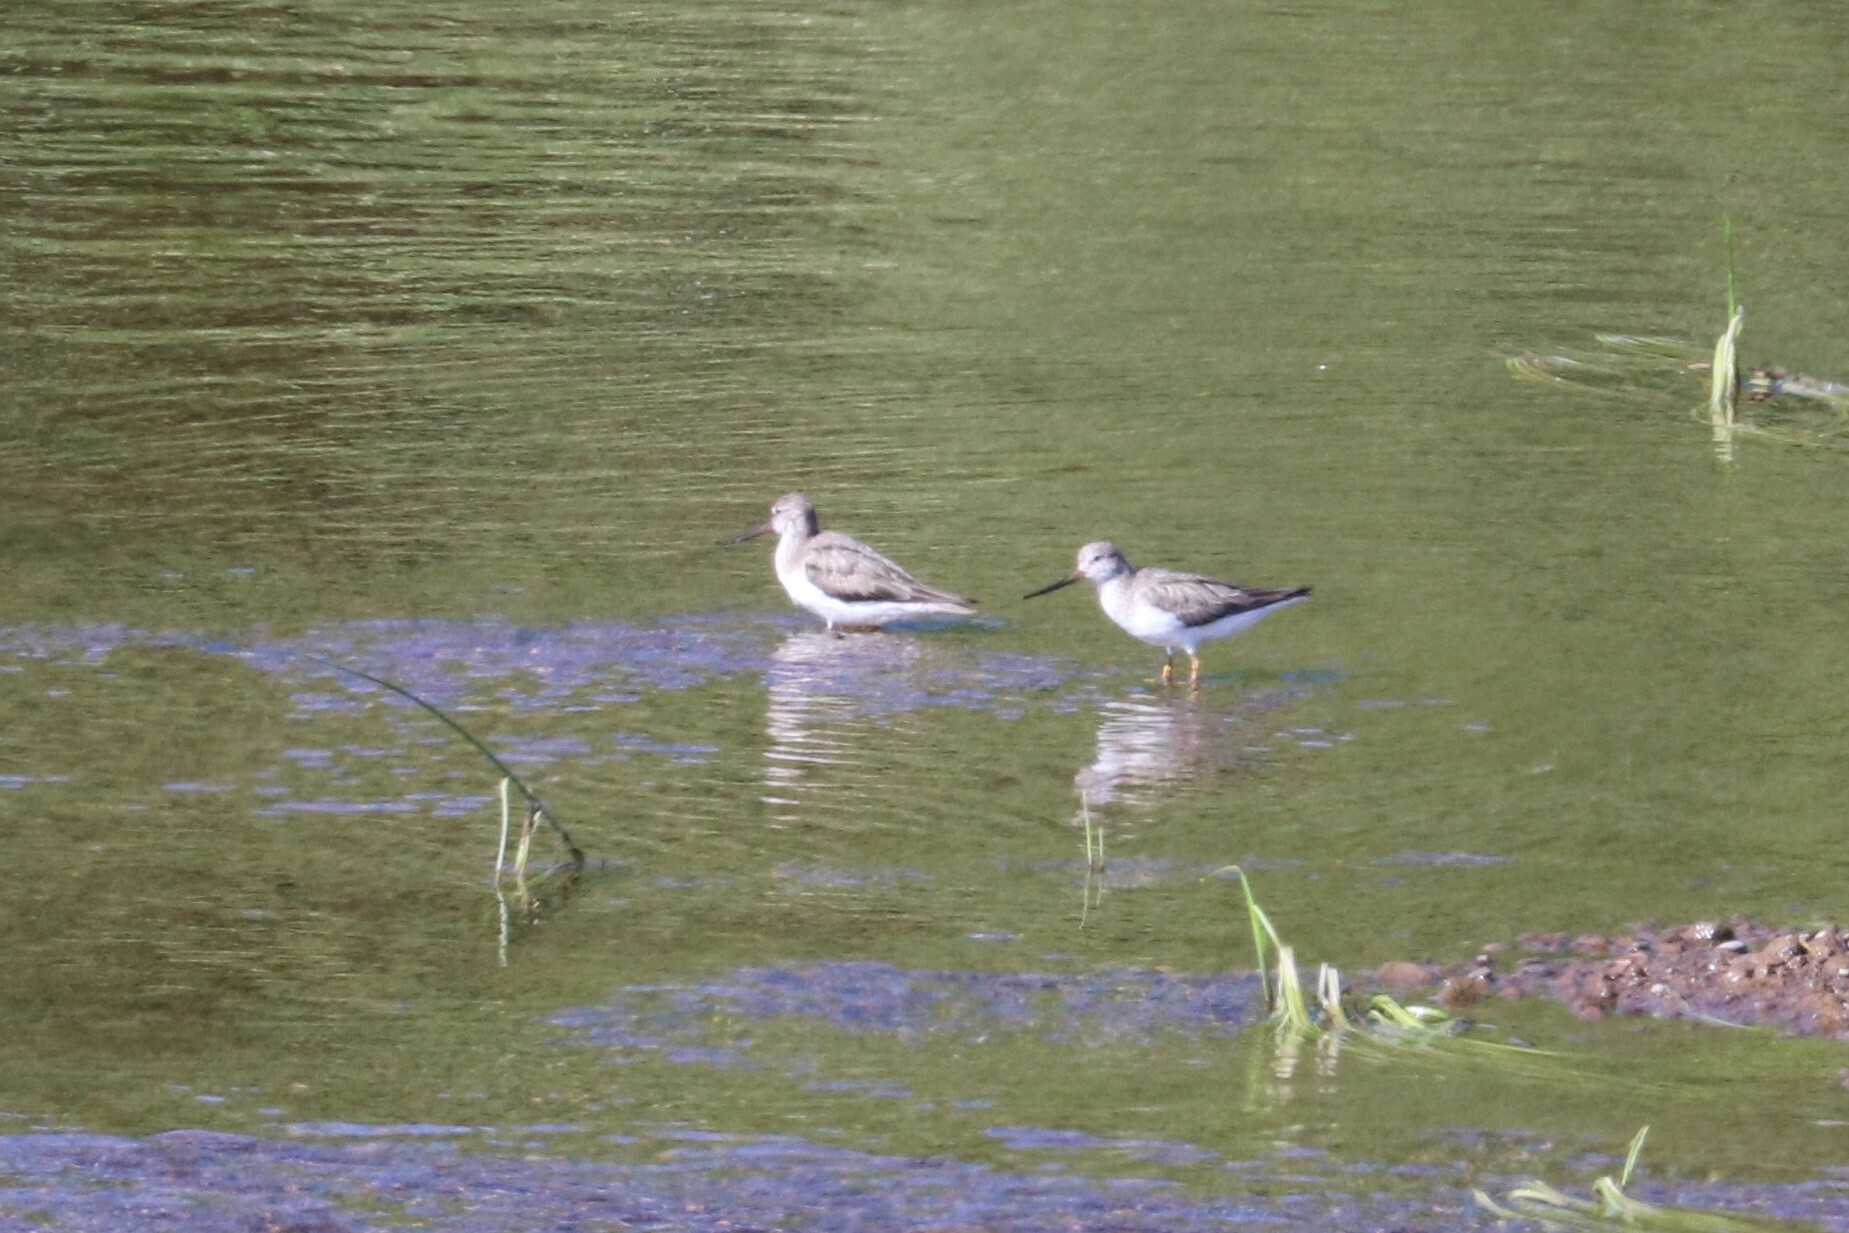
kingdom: Animalia
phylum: Chordata
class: Aves
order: Charadriiformes
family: Scolopacidae
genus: Xenus
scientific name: Xenus cinereus
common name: Terek sandpiper
